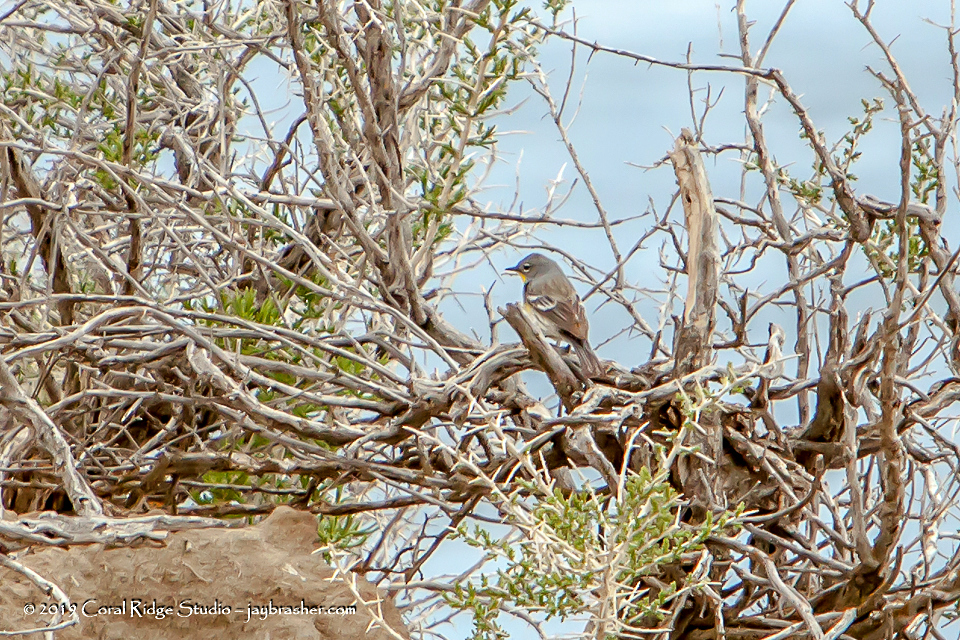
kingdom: Animalia
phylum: Chordata
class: Aves
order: Passeriformes
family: Parulidae
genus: Setophaga
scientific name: Setophaga coronata
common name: Myrtle warbler
